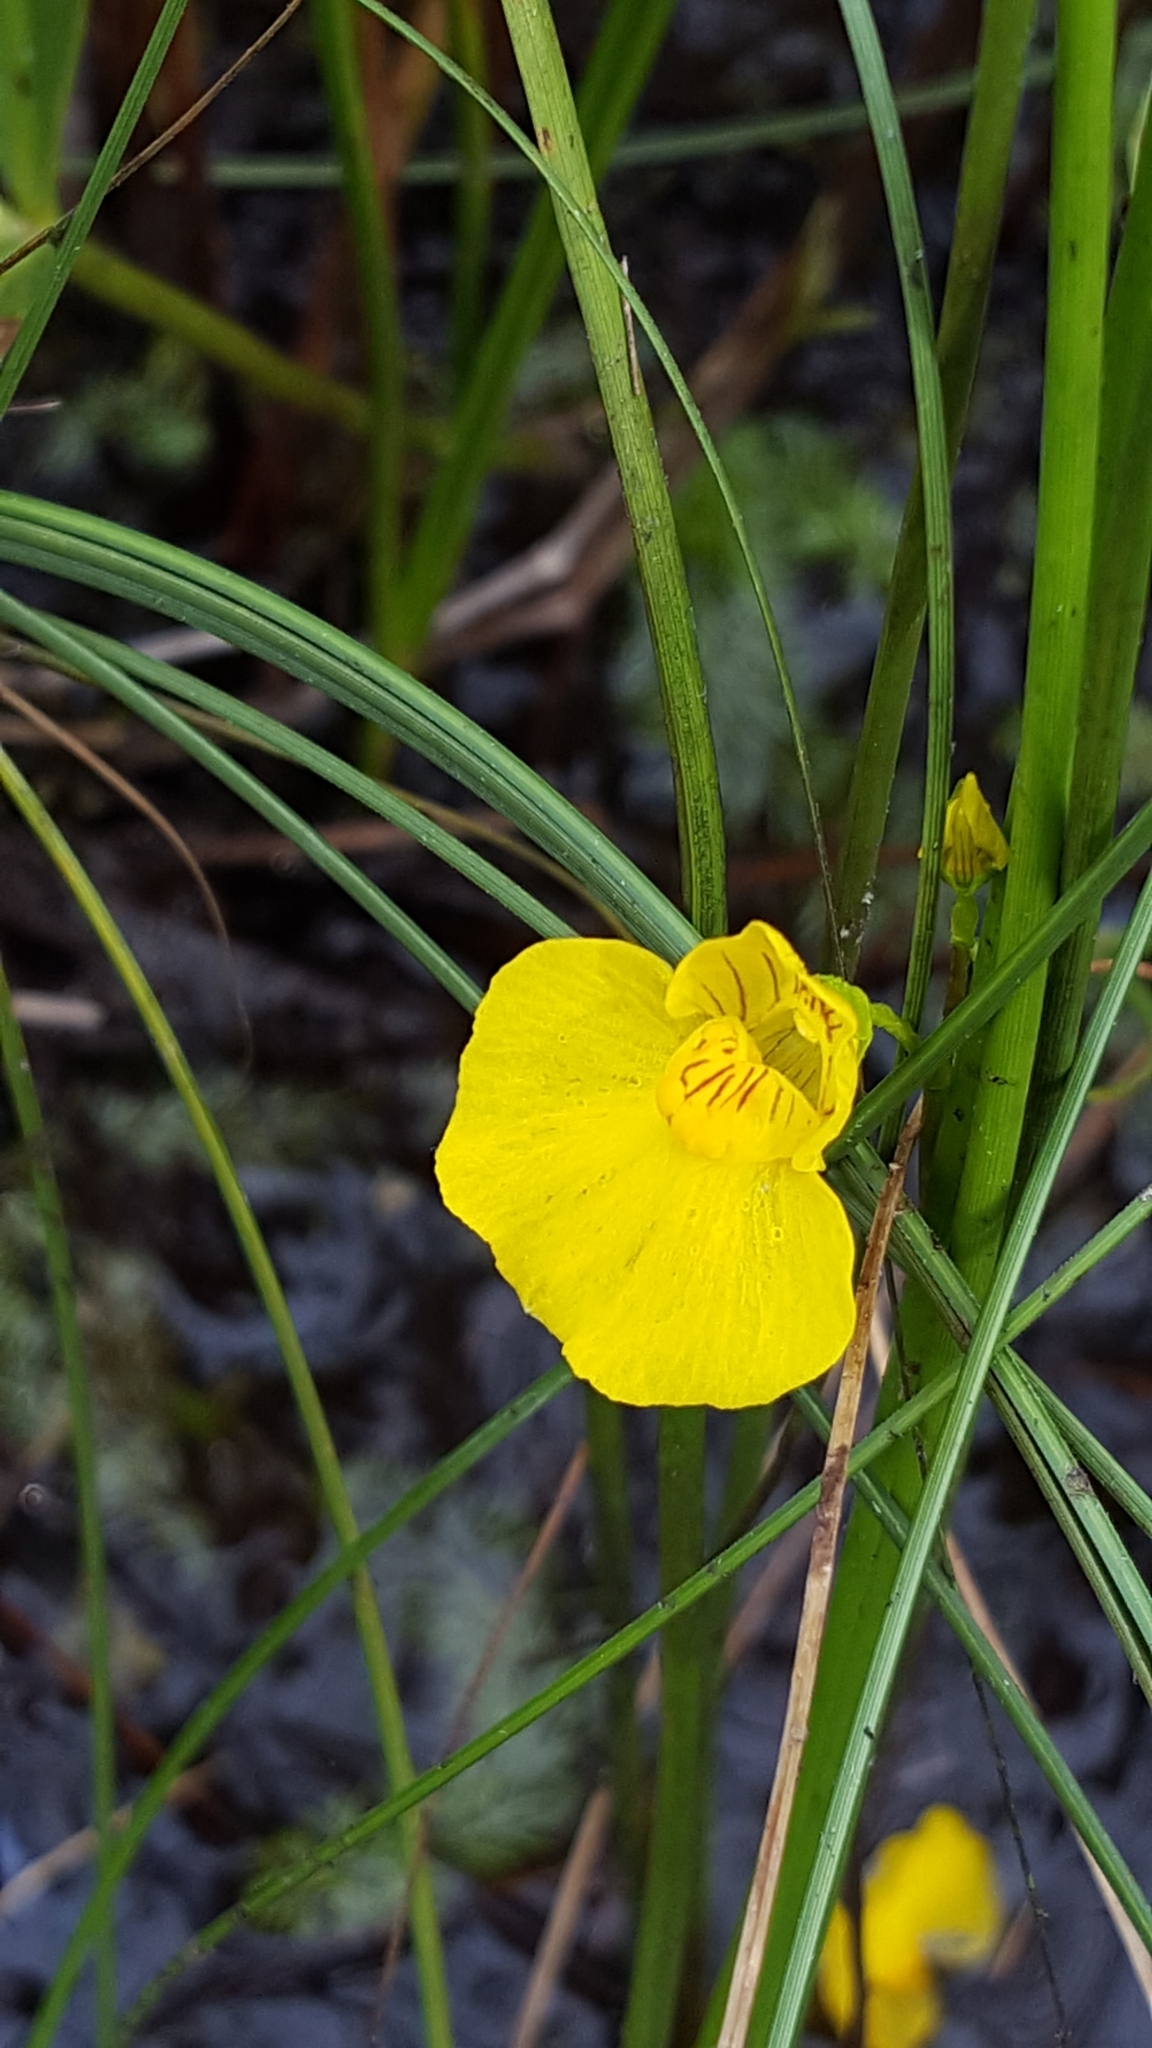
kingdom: Plantae
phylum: Tracheophyta
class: Magnoliopsida
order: Lamiales
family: Lentibulariaceae
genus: Utricularia
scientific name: Utricularia intermedia
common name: Intermediate bladderwort
